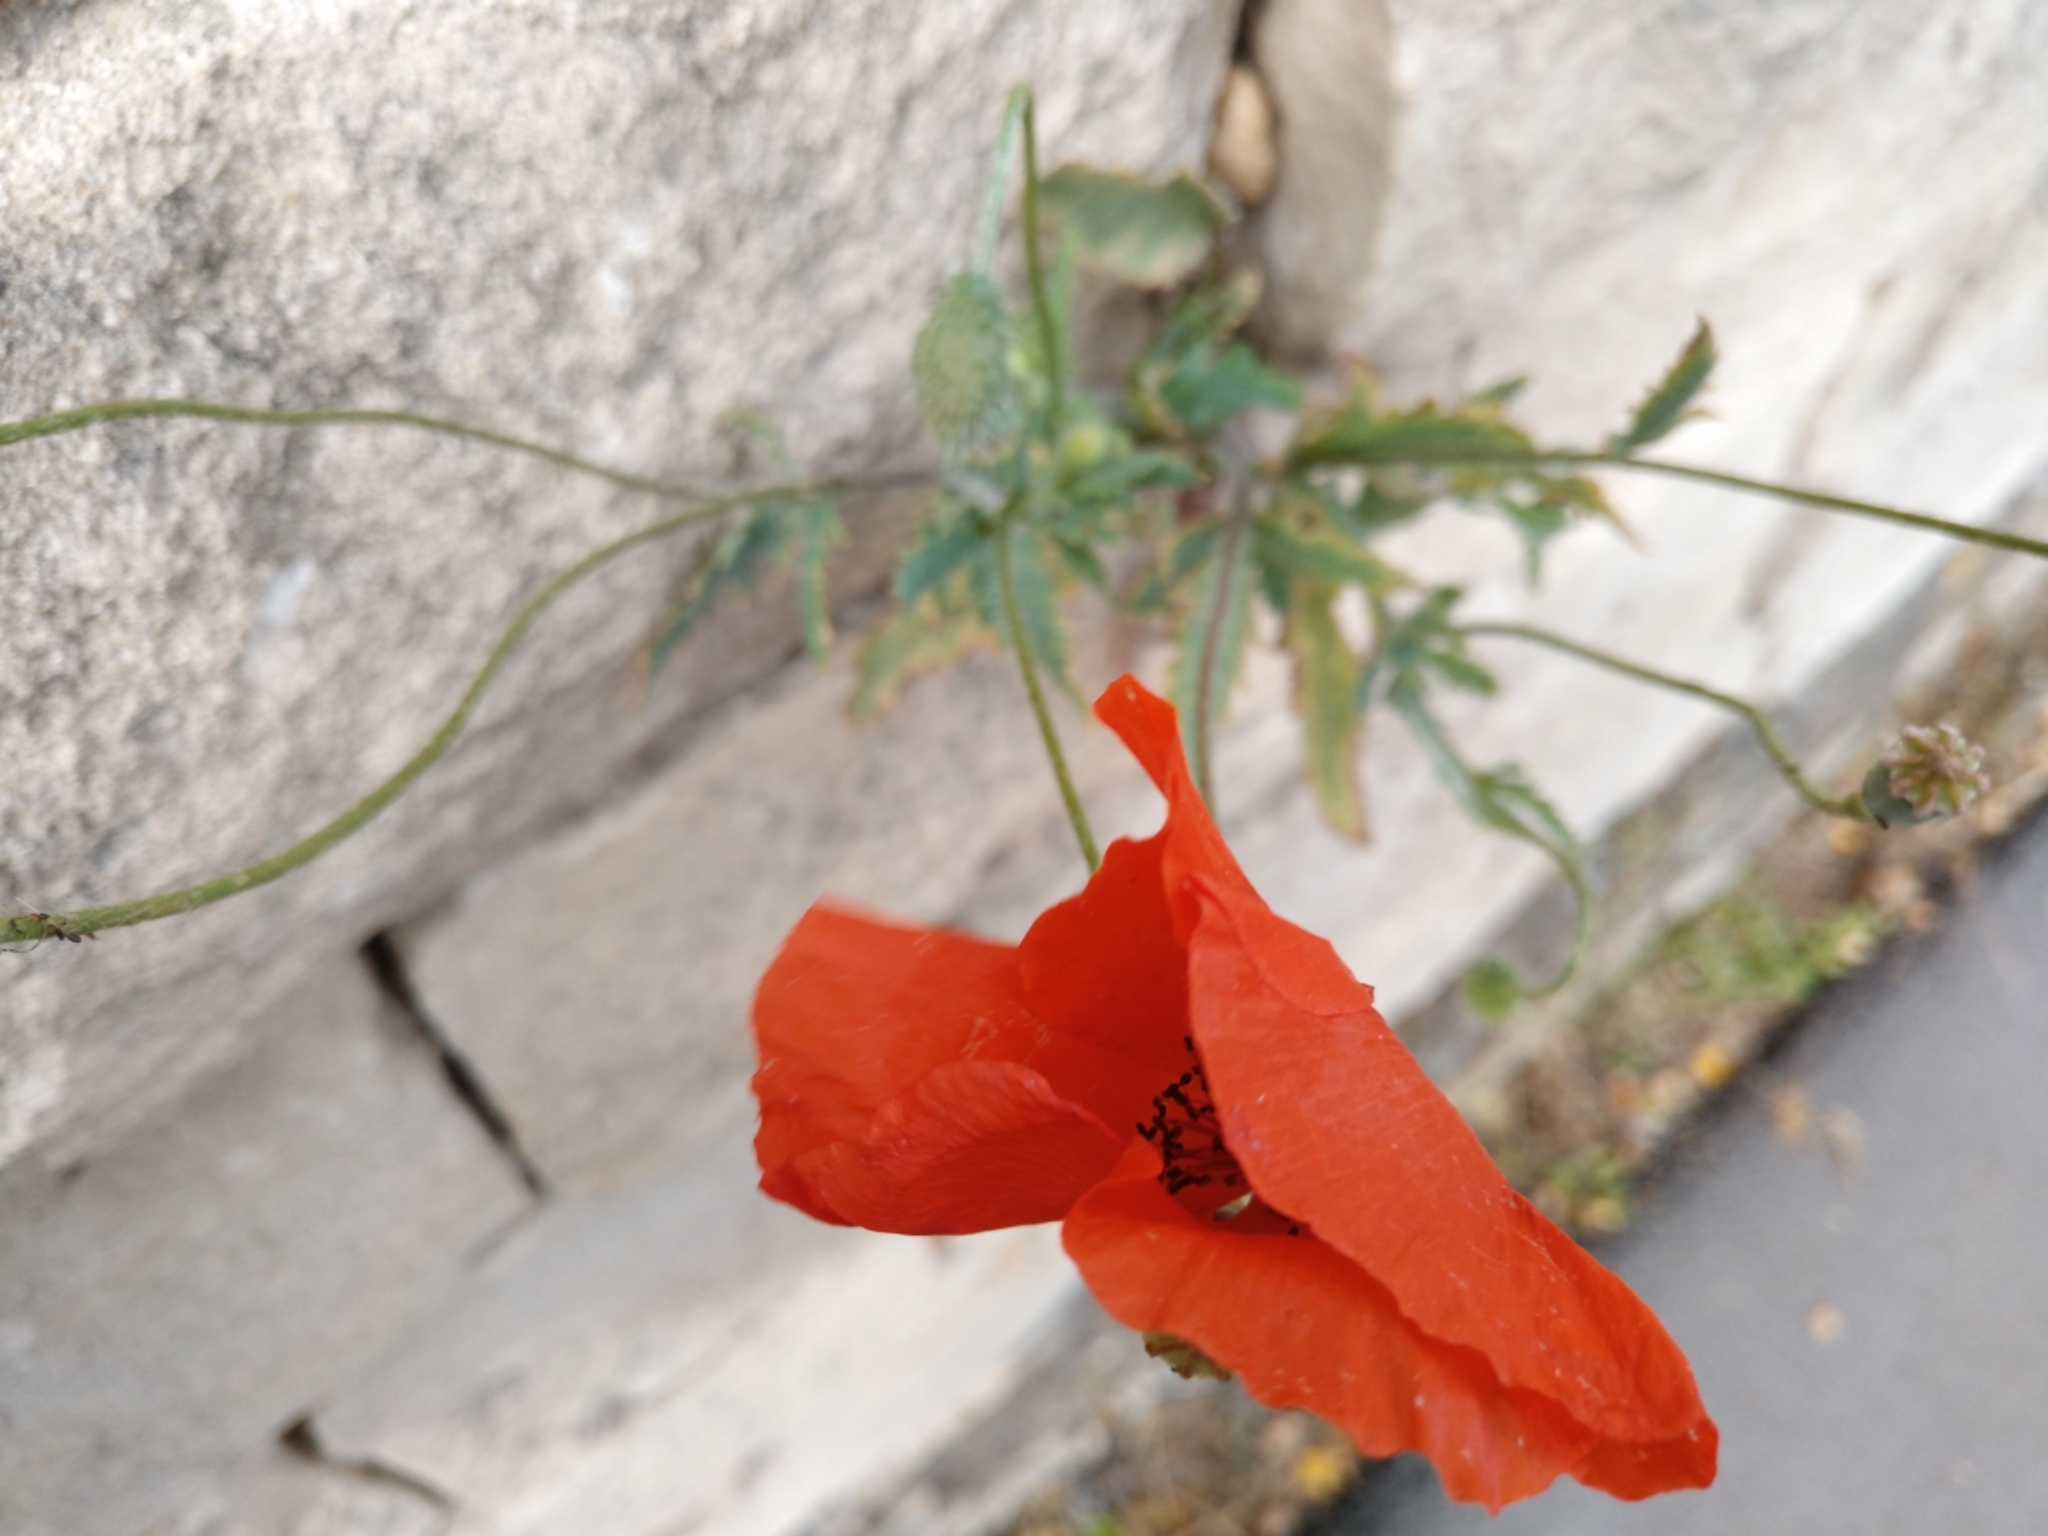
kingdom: Plantae
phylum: Tracheophyta
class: Magnoliopsida
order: Ranunculales
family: Papaveraceae
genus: Papaver
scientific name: Papaver rhoeas
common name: Corn poppy
